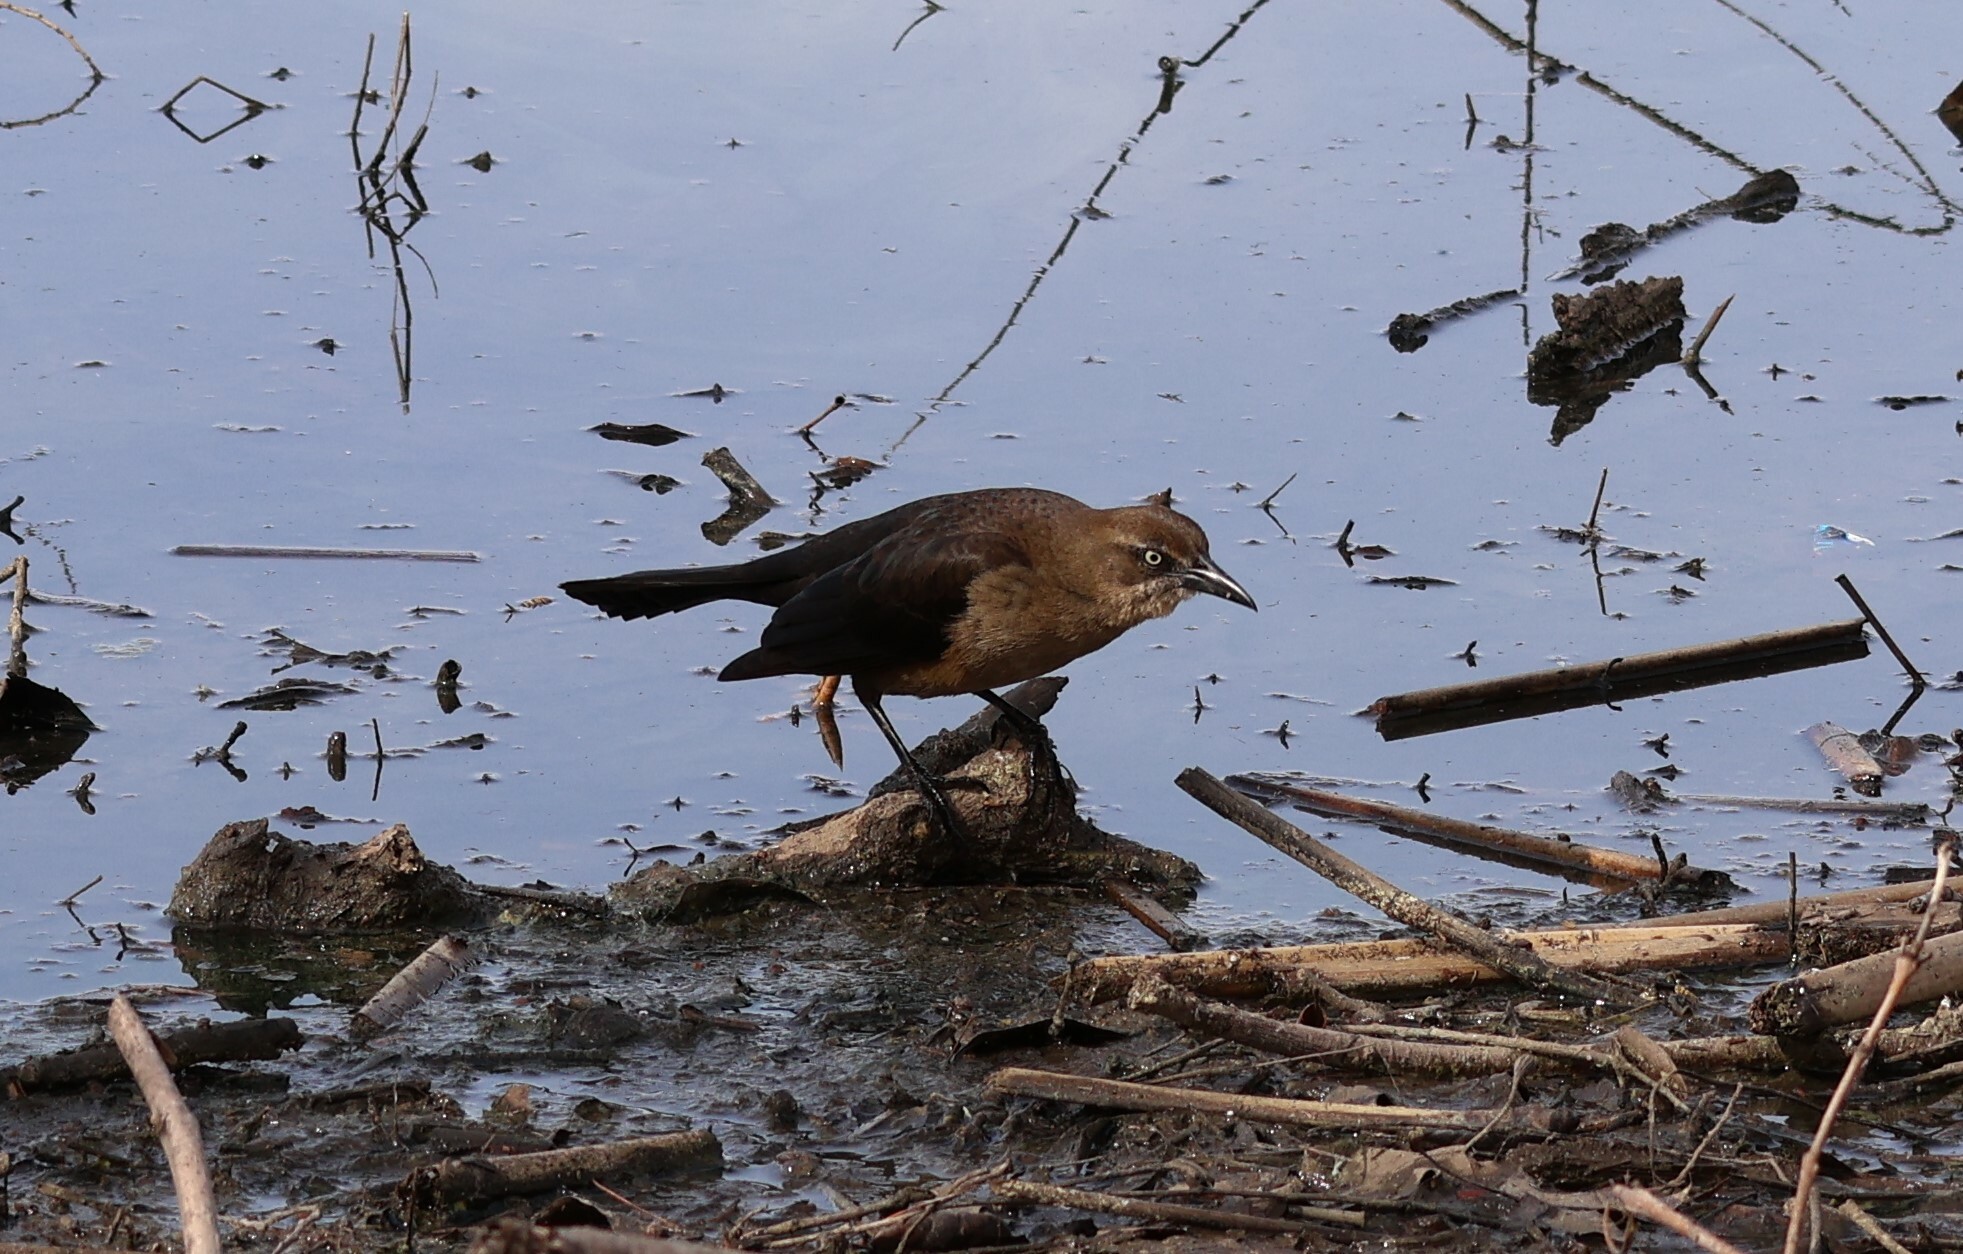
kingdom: Animalia
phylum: Chordata
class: Aves
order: Passeriformes
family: Icteridae
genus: Quiscalus
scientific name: Quiscalus mexicanus
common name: Great-tailed grackle
